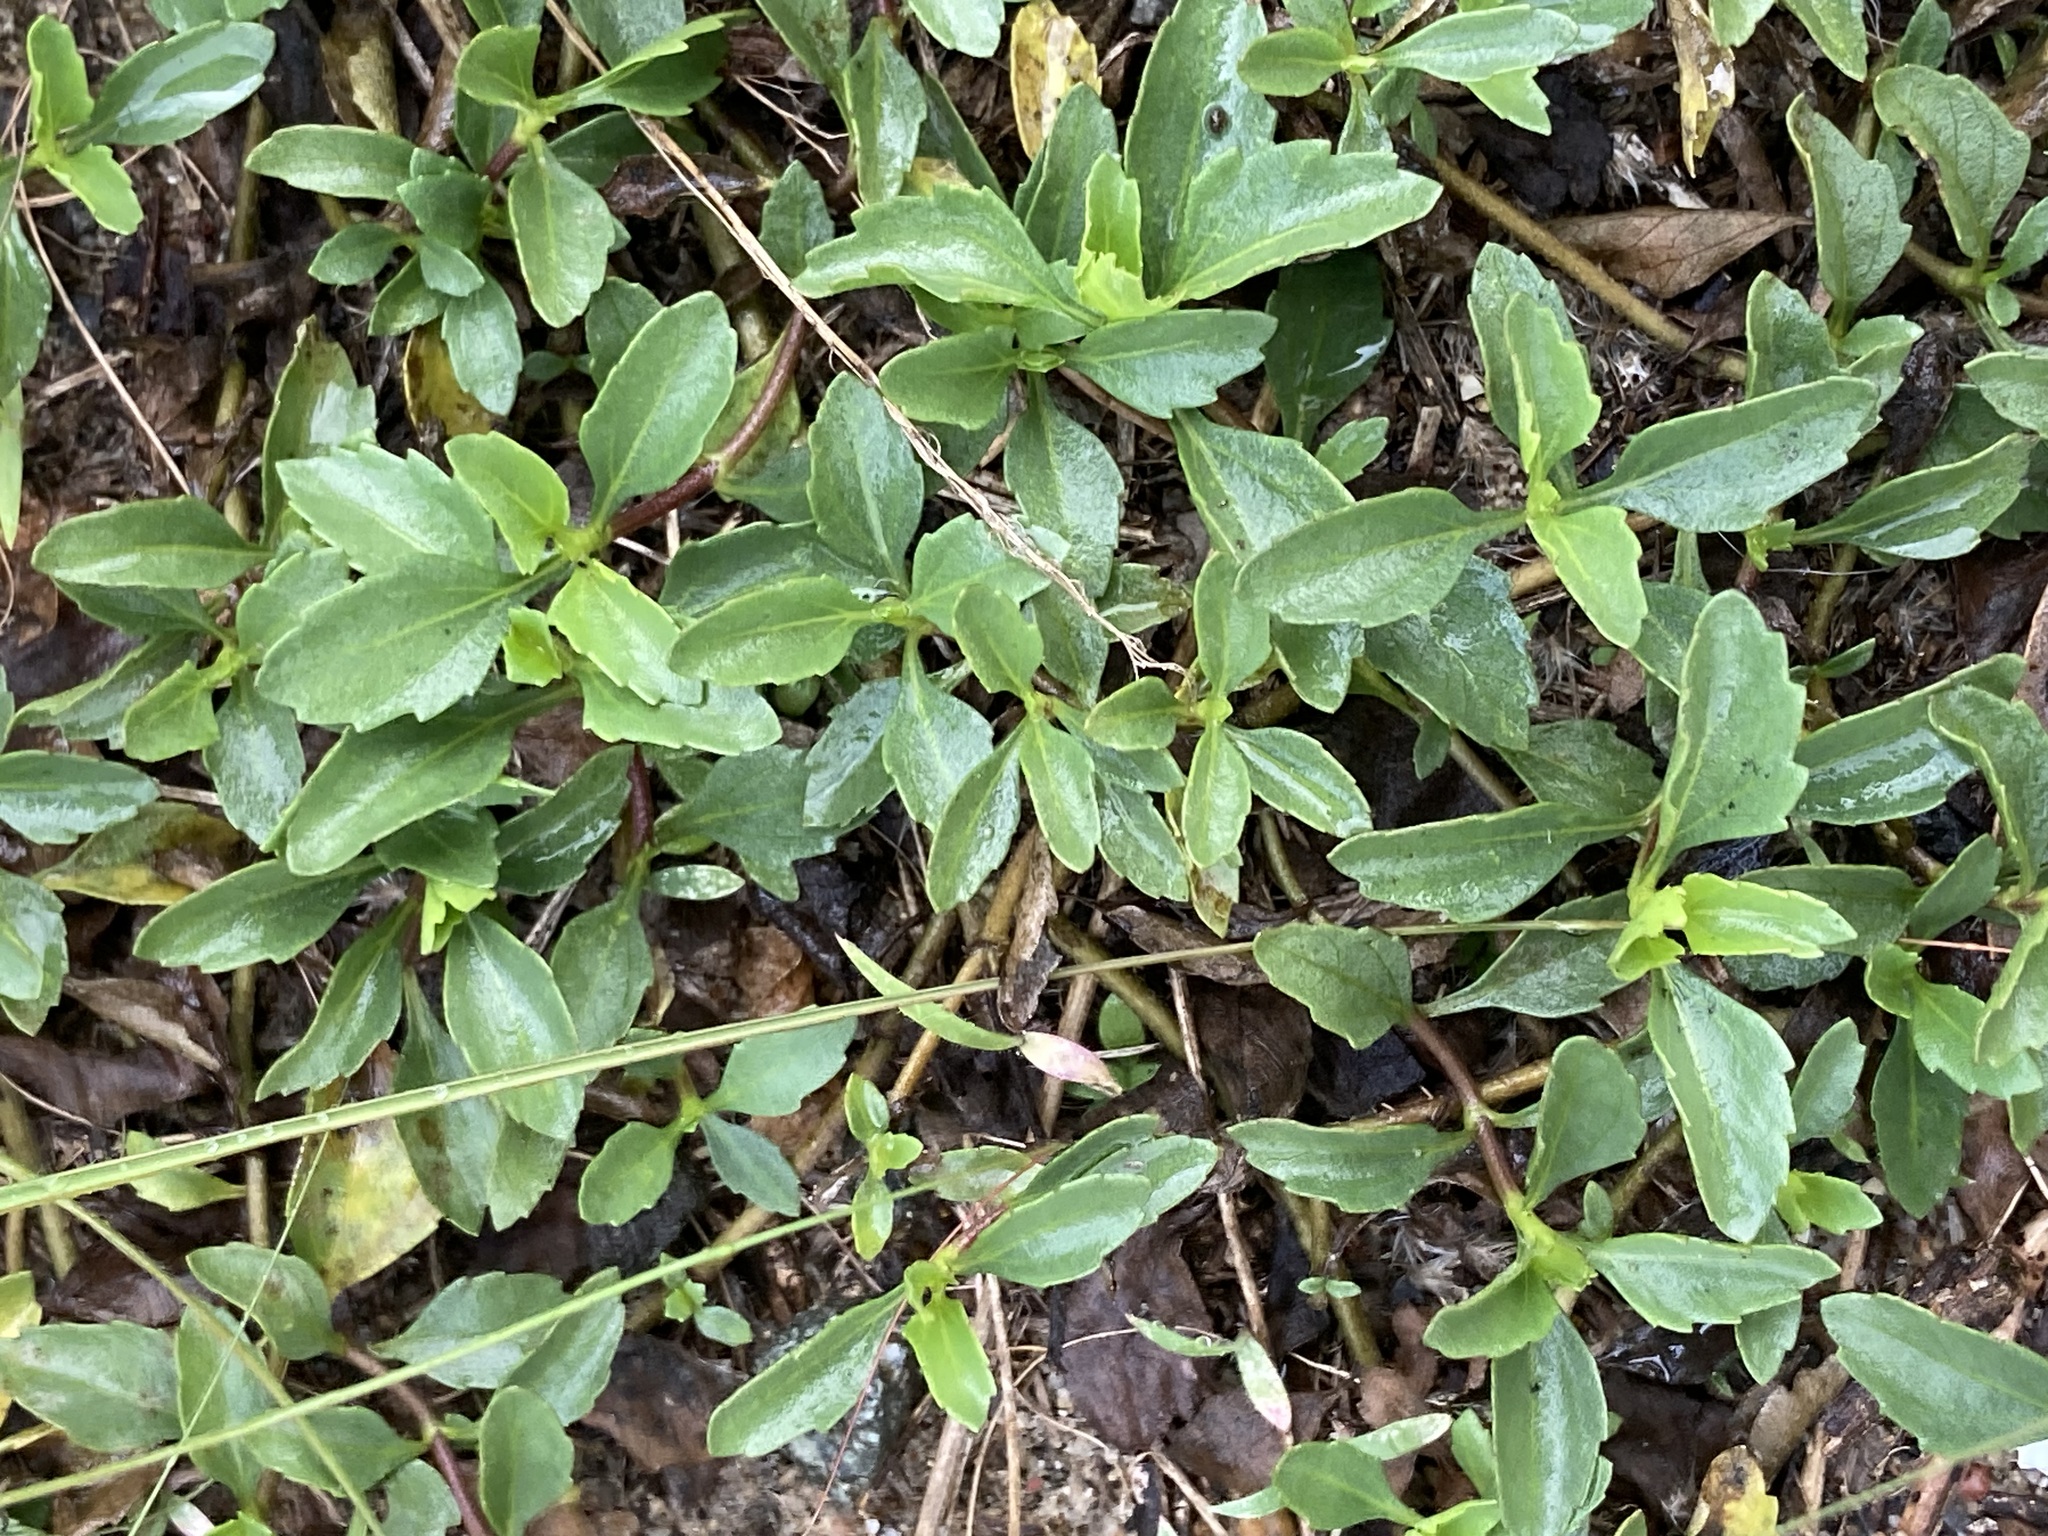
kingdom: Plantae
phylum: Tracheophyta
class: Magnoliopsida
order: Asterales
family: Asteraceae
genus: Acanthospermum
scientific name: Acanthospermum australe
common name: Paraguayan starbur
